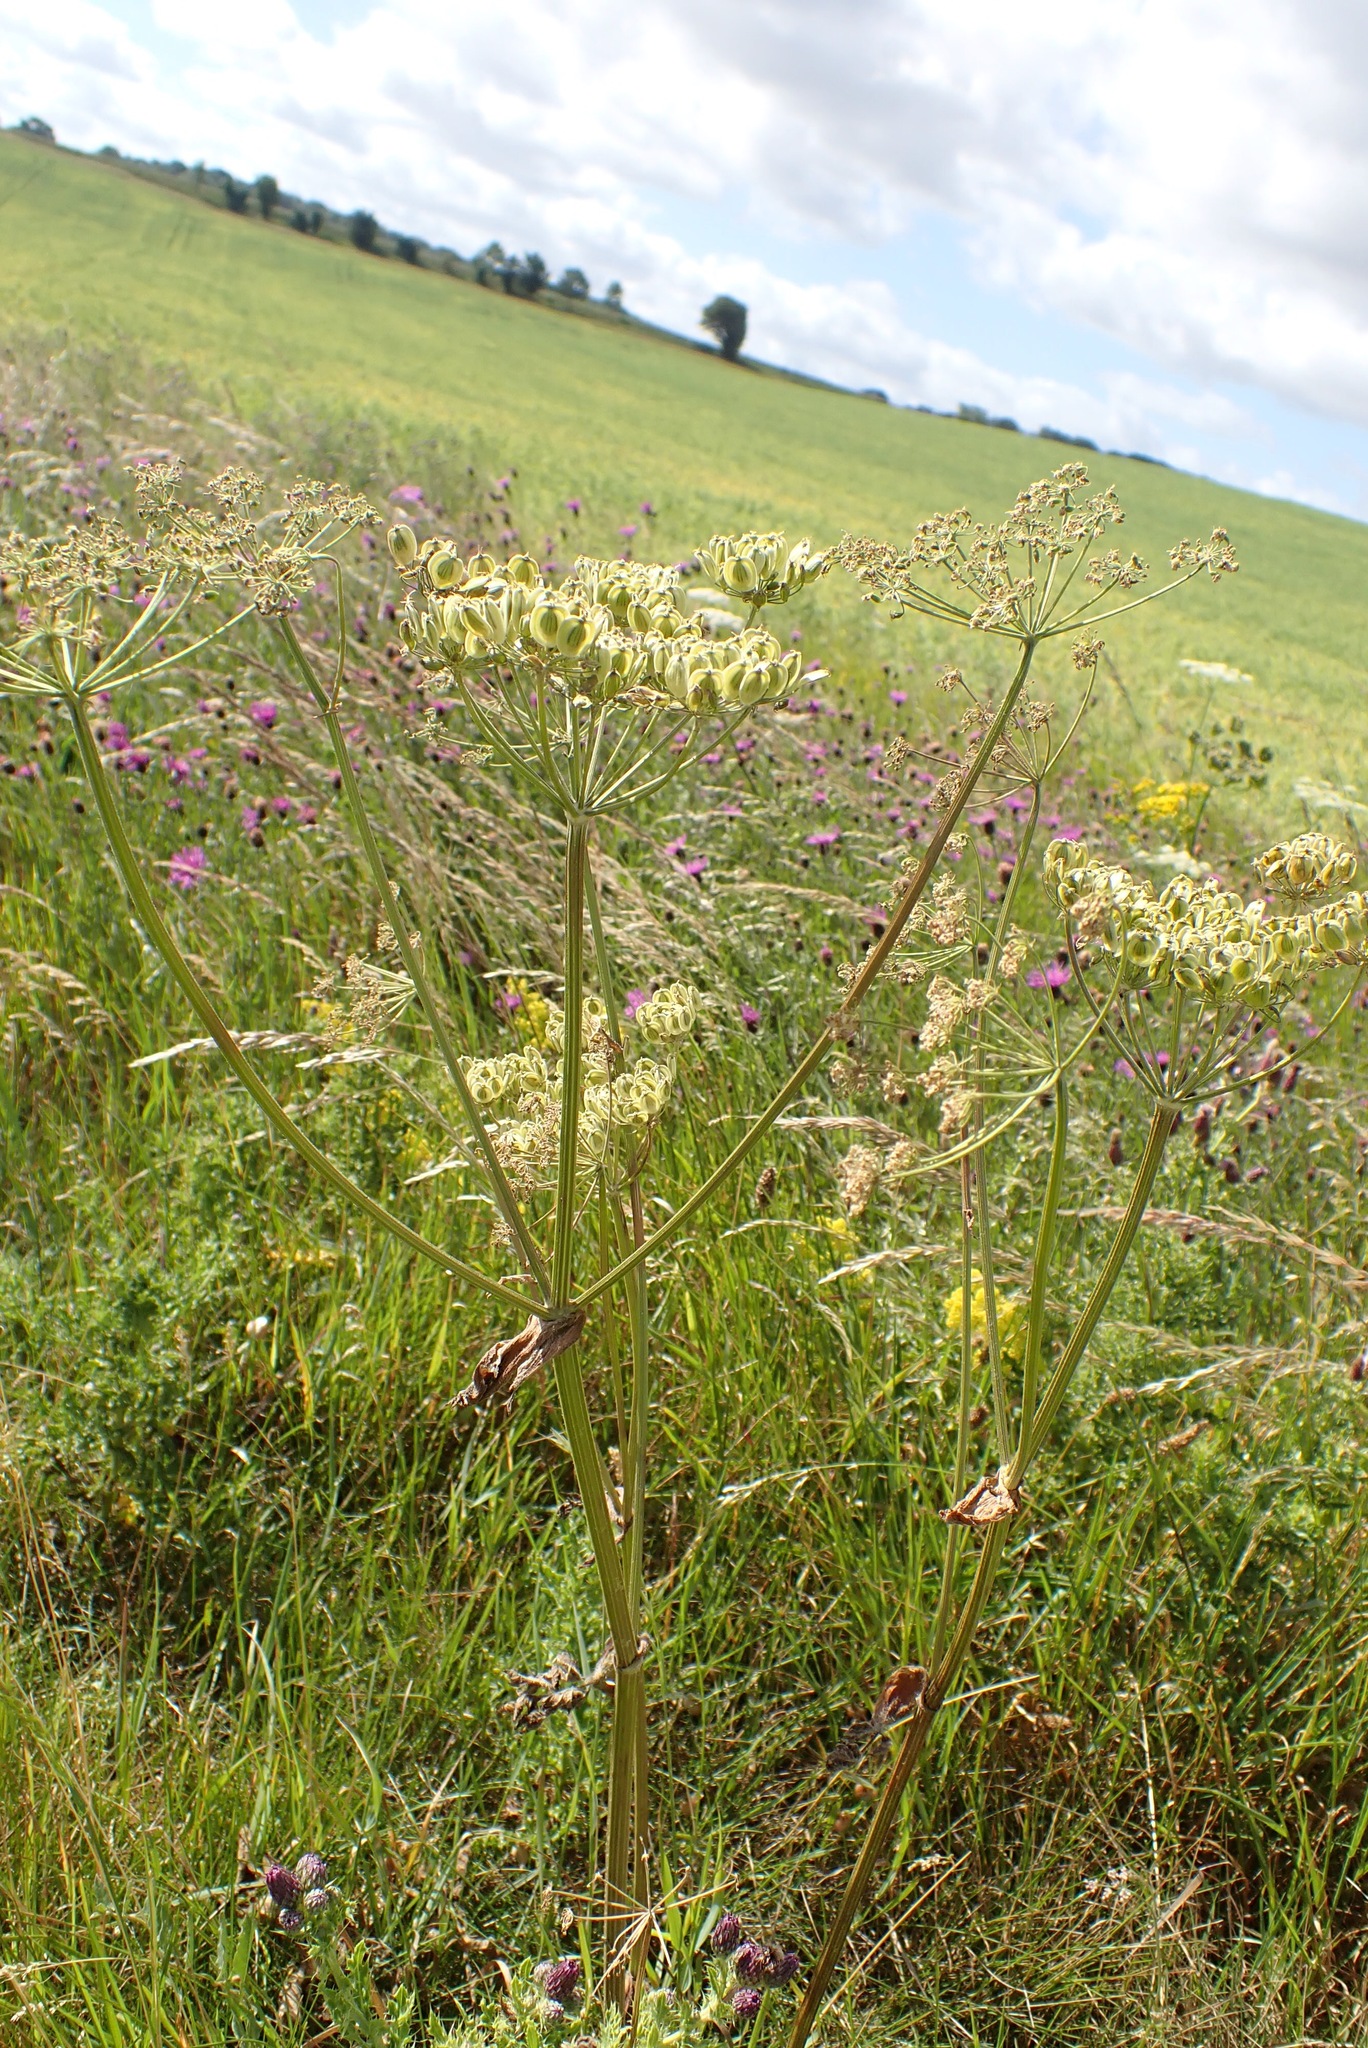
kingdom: Plantae
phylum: Tracheophyta
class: Magnoliopsida
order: Apiales
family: Apiaceae
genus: Heracleum
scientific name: Heracleum sphondylium
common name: Hogweed
